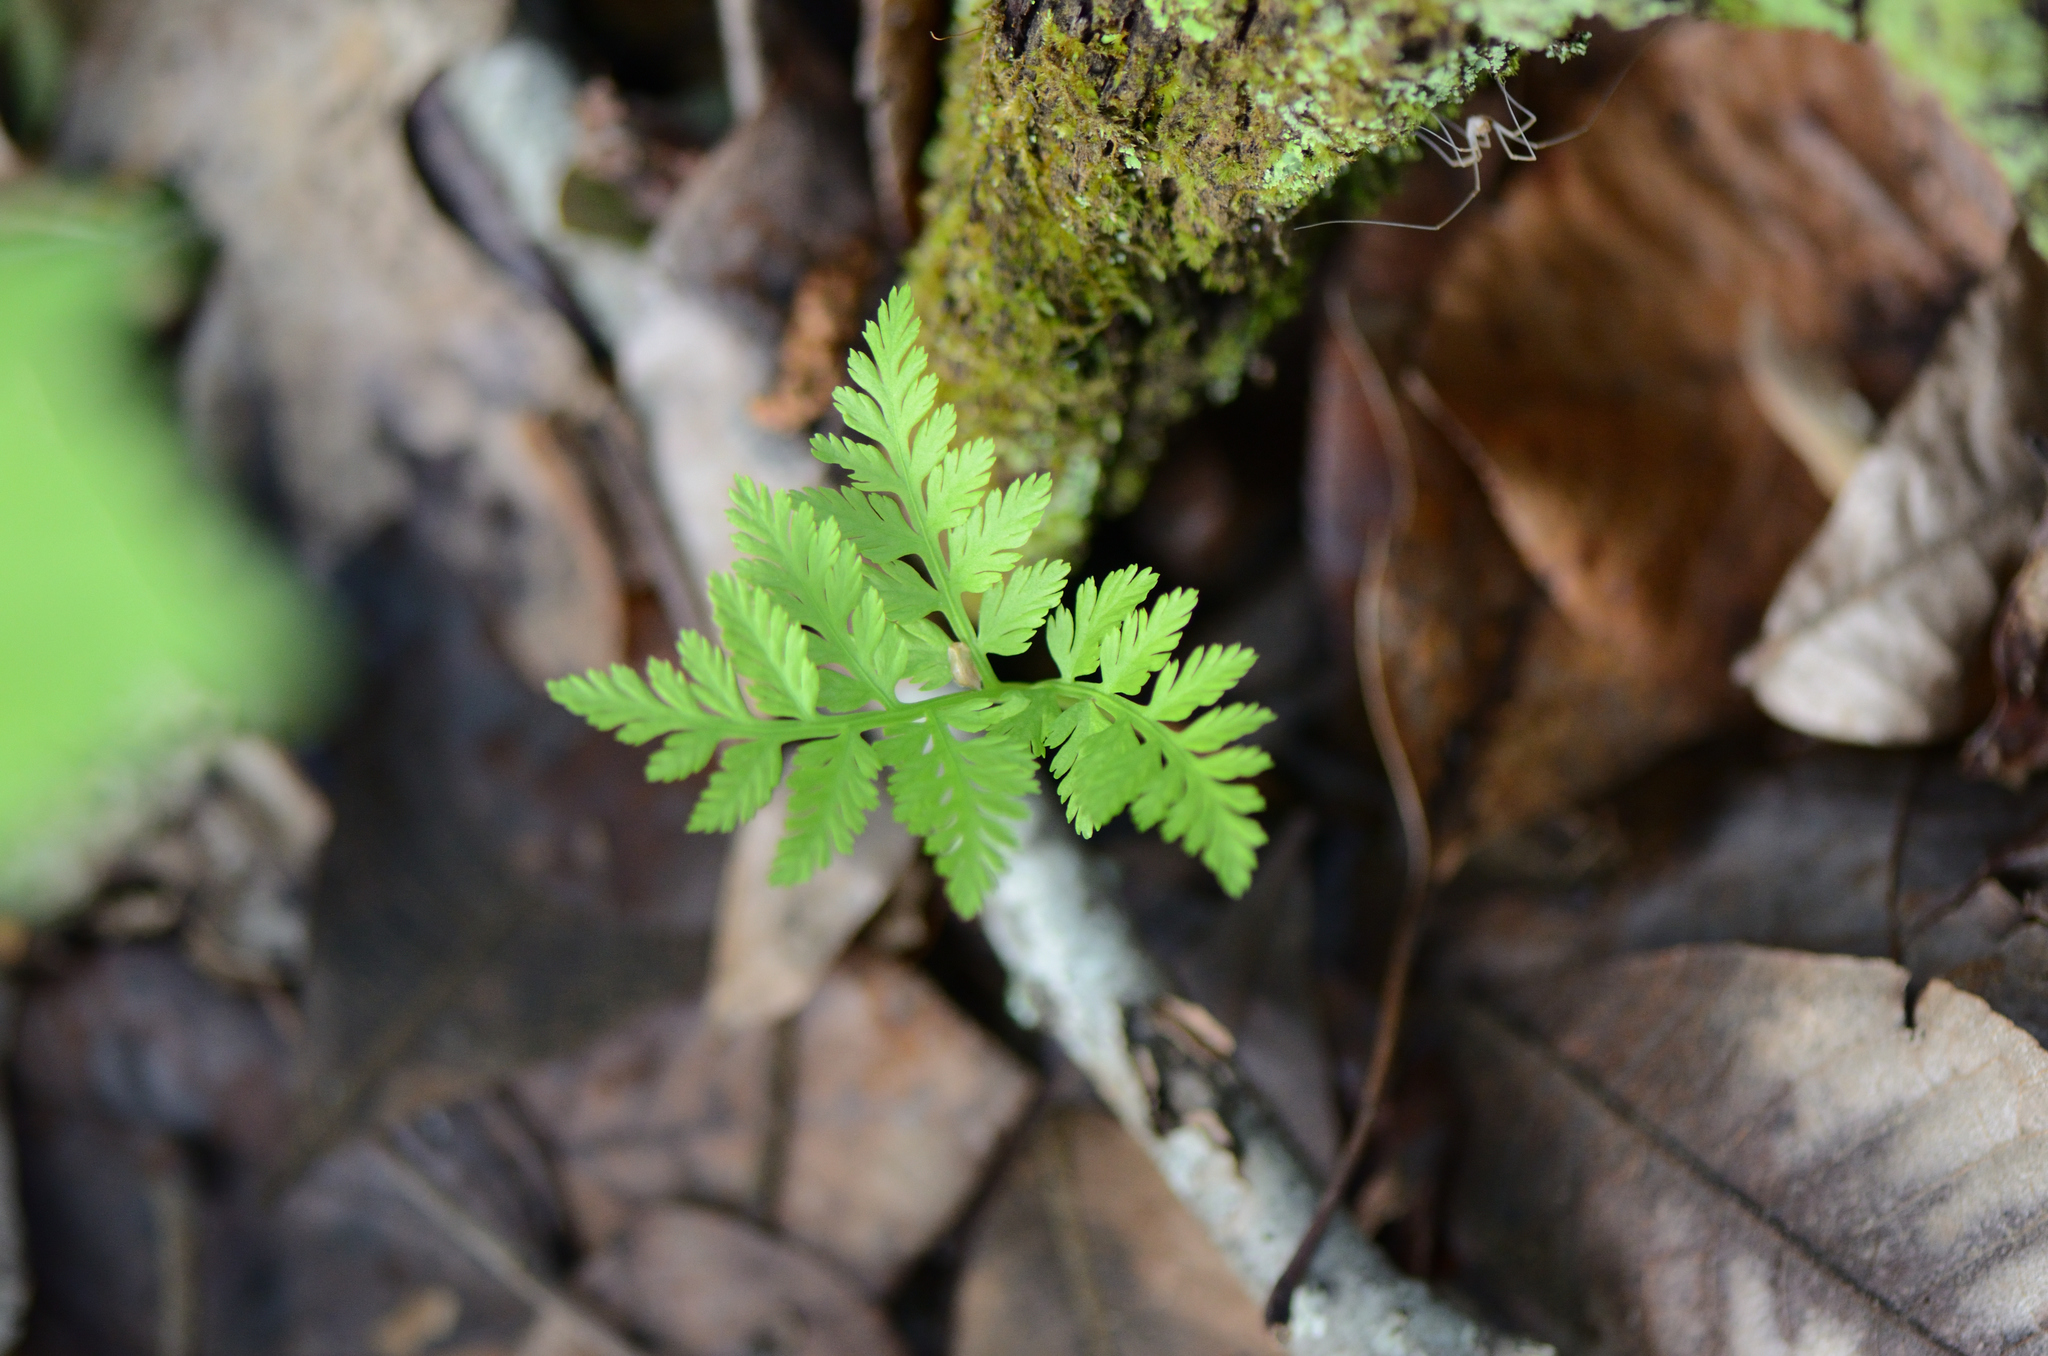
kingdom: Plantae
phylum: Tracheophyta
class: Polypodiopsida
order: Ophioglossales
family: Ophioglossaceae
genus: Botrypus
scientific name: Botrypus virginianus
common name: Common grapefern
